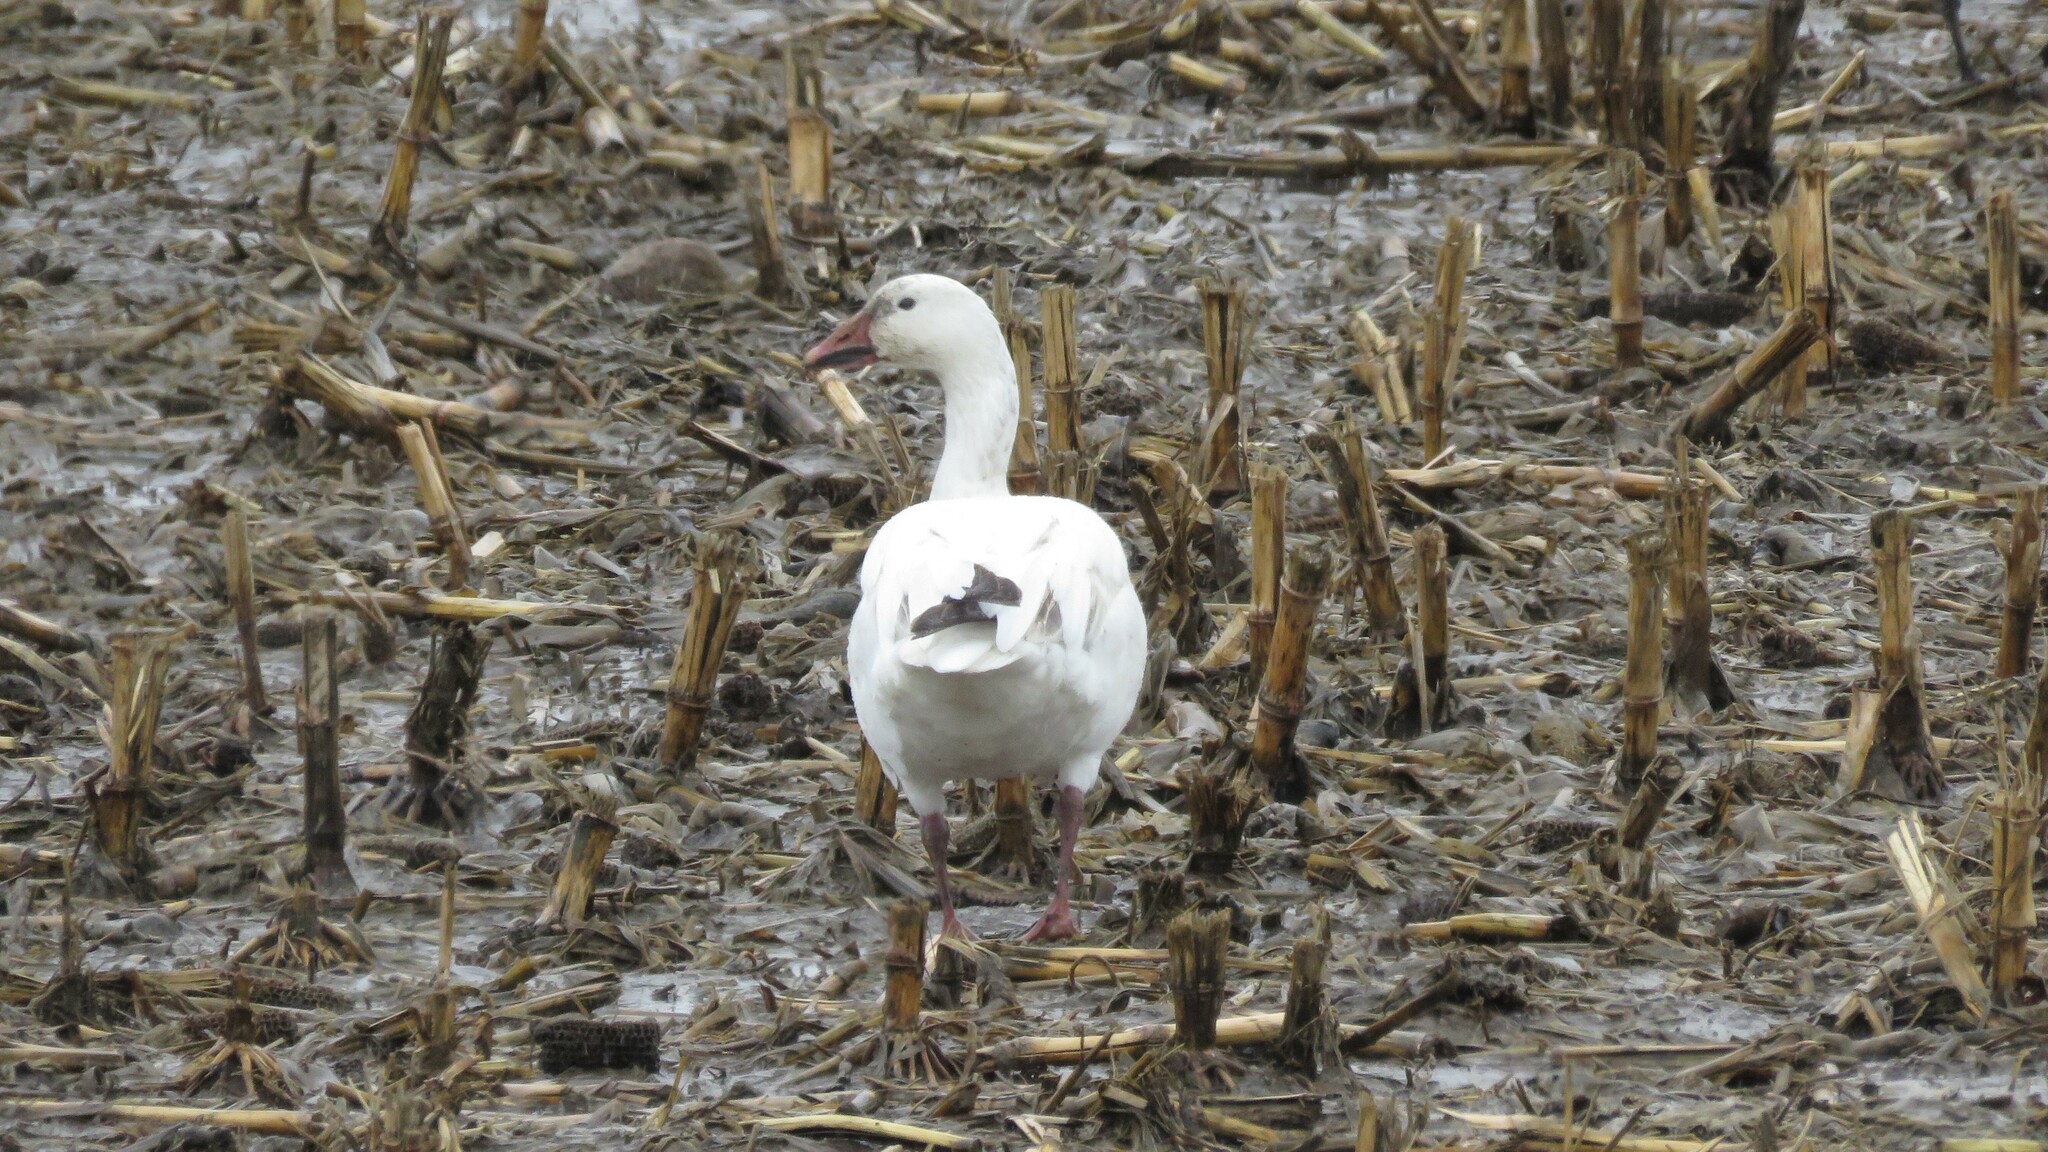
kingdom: Animalia
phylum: Chordata
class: Aves
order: Anseriformes
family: Anatidae
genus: Anser
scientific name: Anser caerulescens
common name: Snow goose
